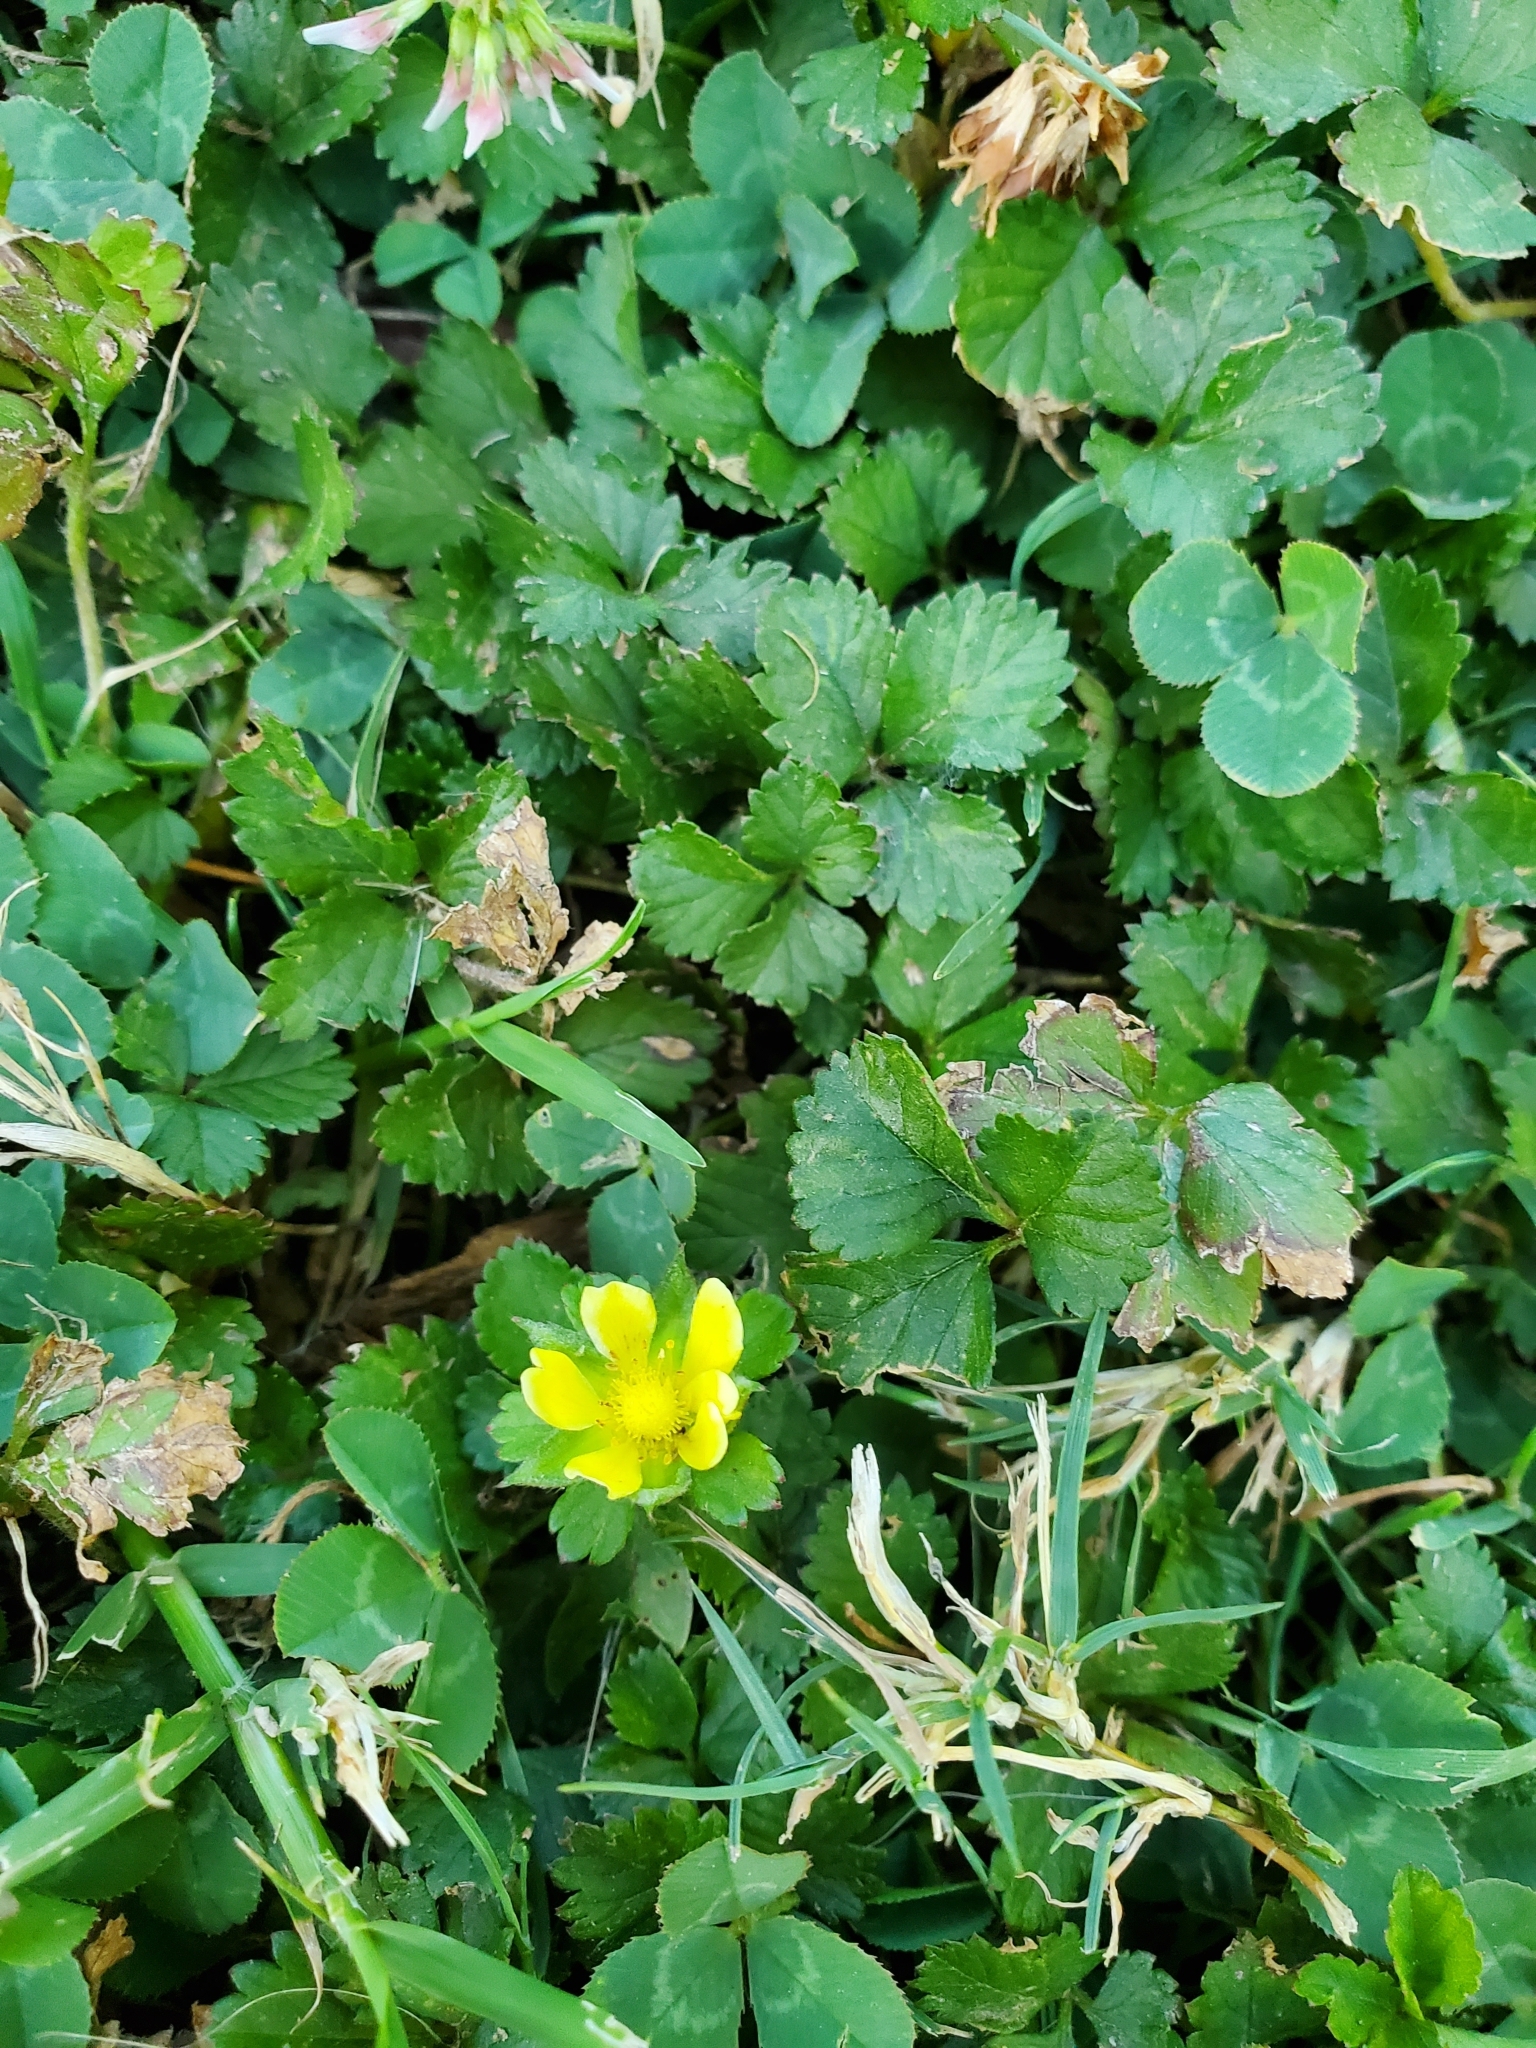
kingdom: Plantae
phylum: Tracheophyta
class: Magnoliopsida
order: Rosales
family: Rosaceae
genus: Potentilla
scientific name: Potentilla indica
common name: Yellow-flowered strawberry
